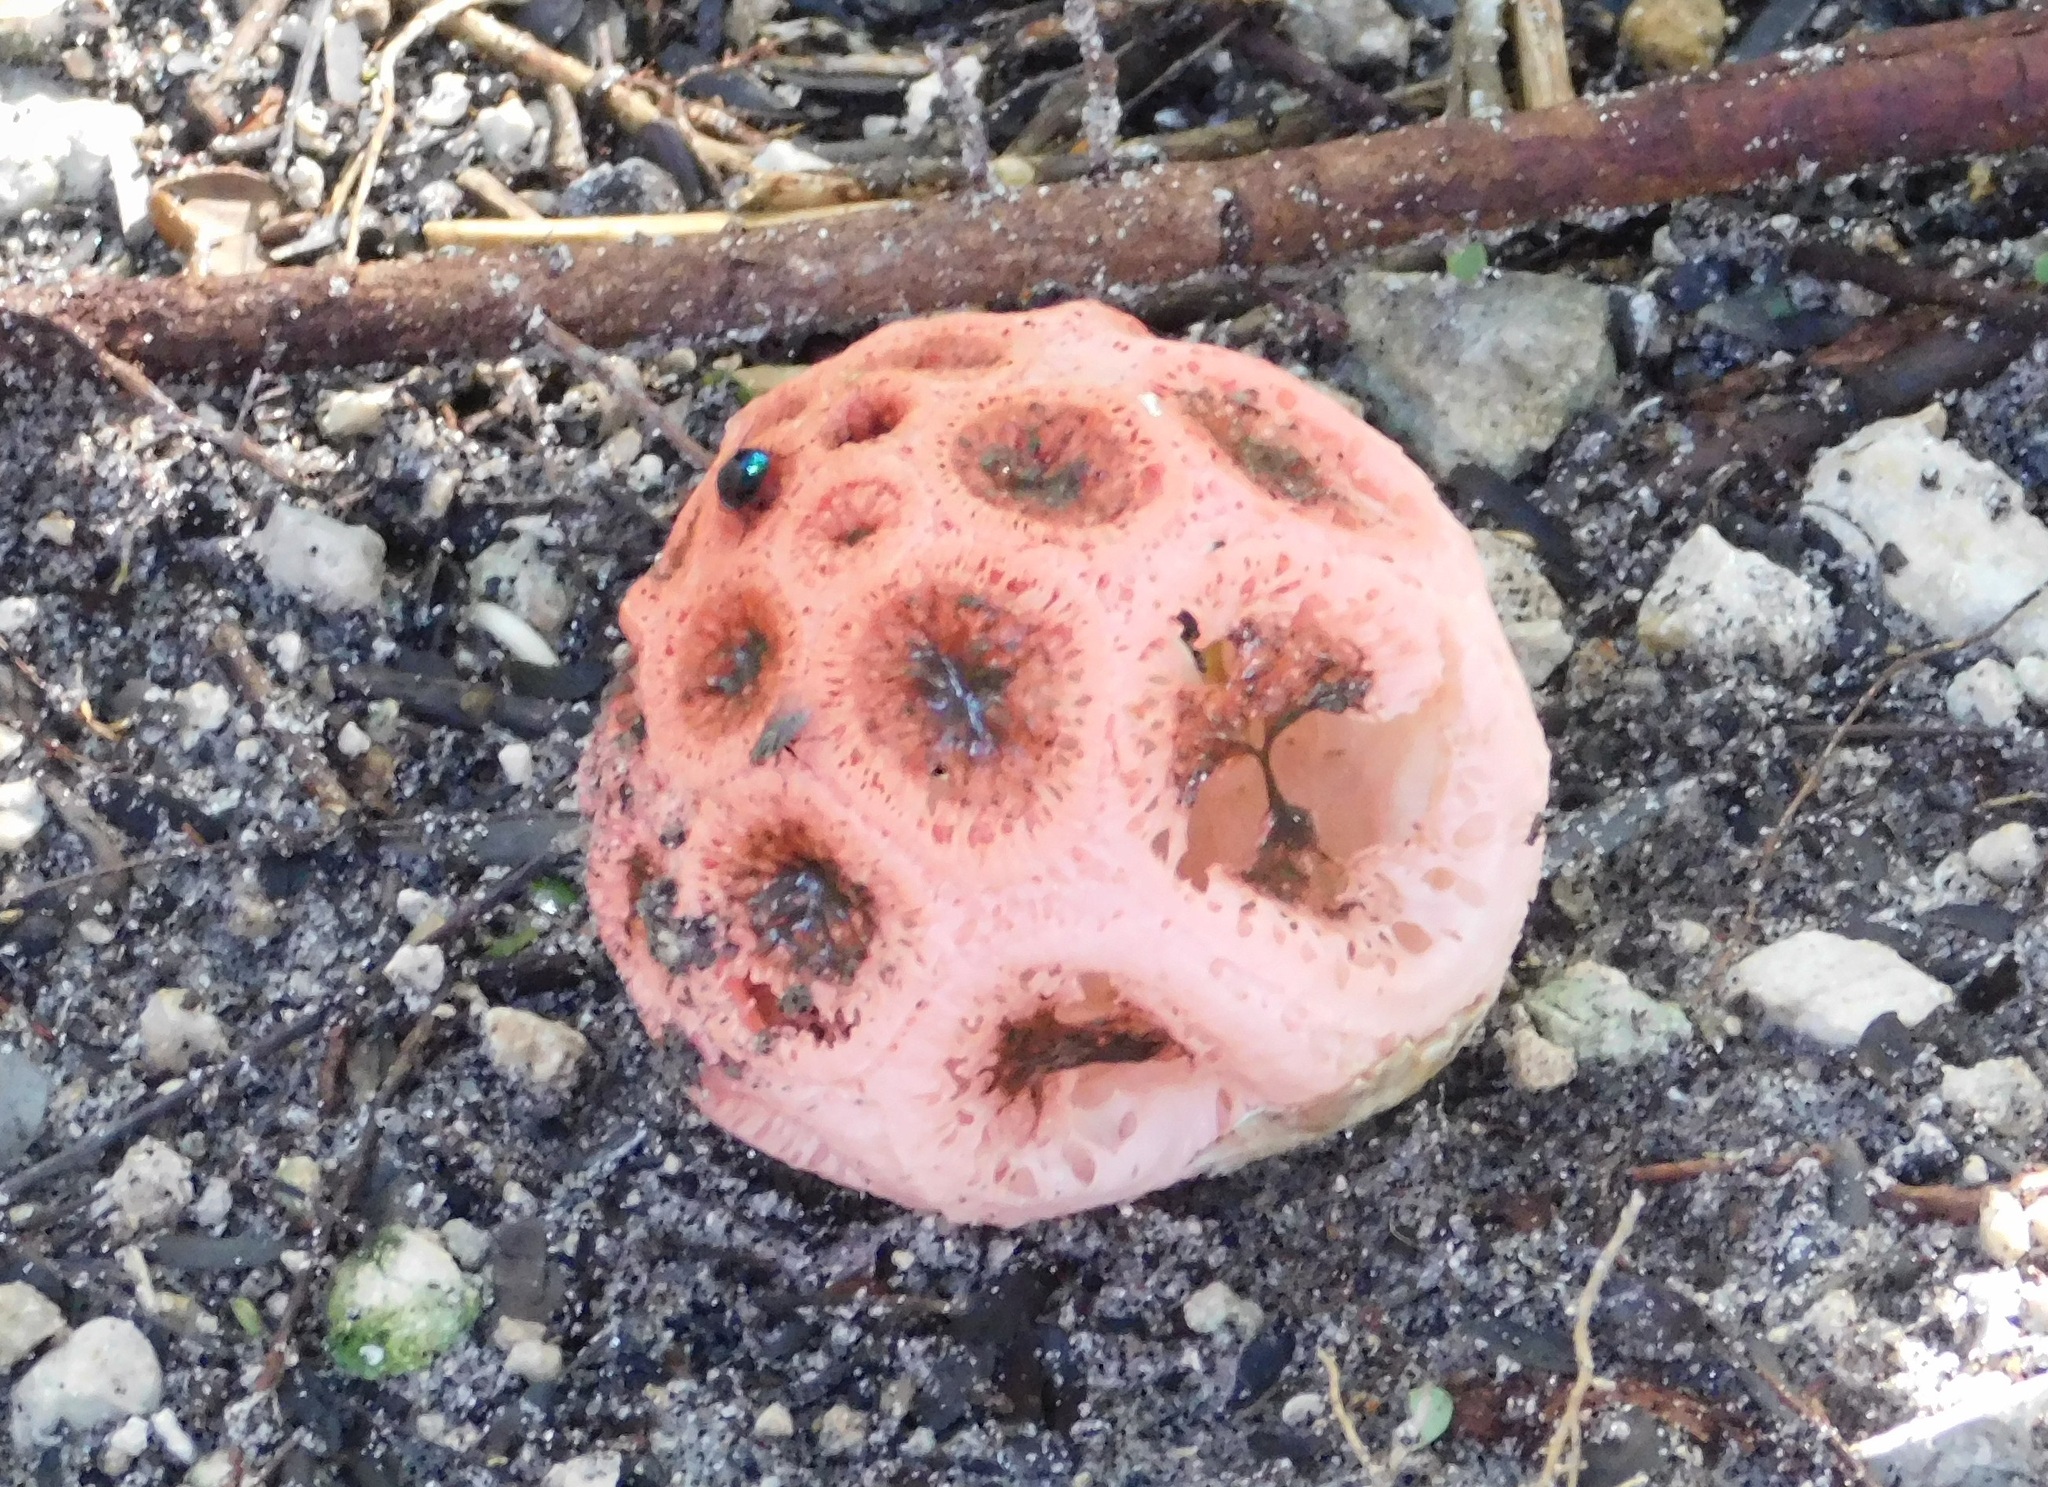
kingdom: Fungi
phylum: Basidiomycota
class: Agaricomycetes
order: Phallales
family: Phallaceae
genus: Clathrus
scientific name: Clathrus crispatus
